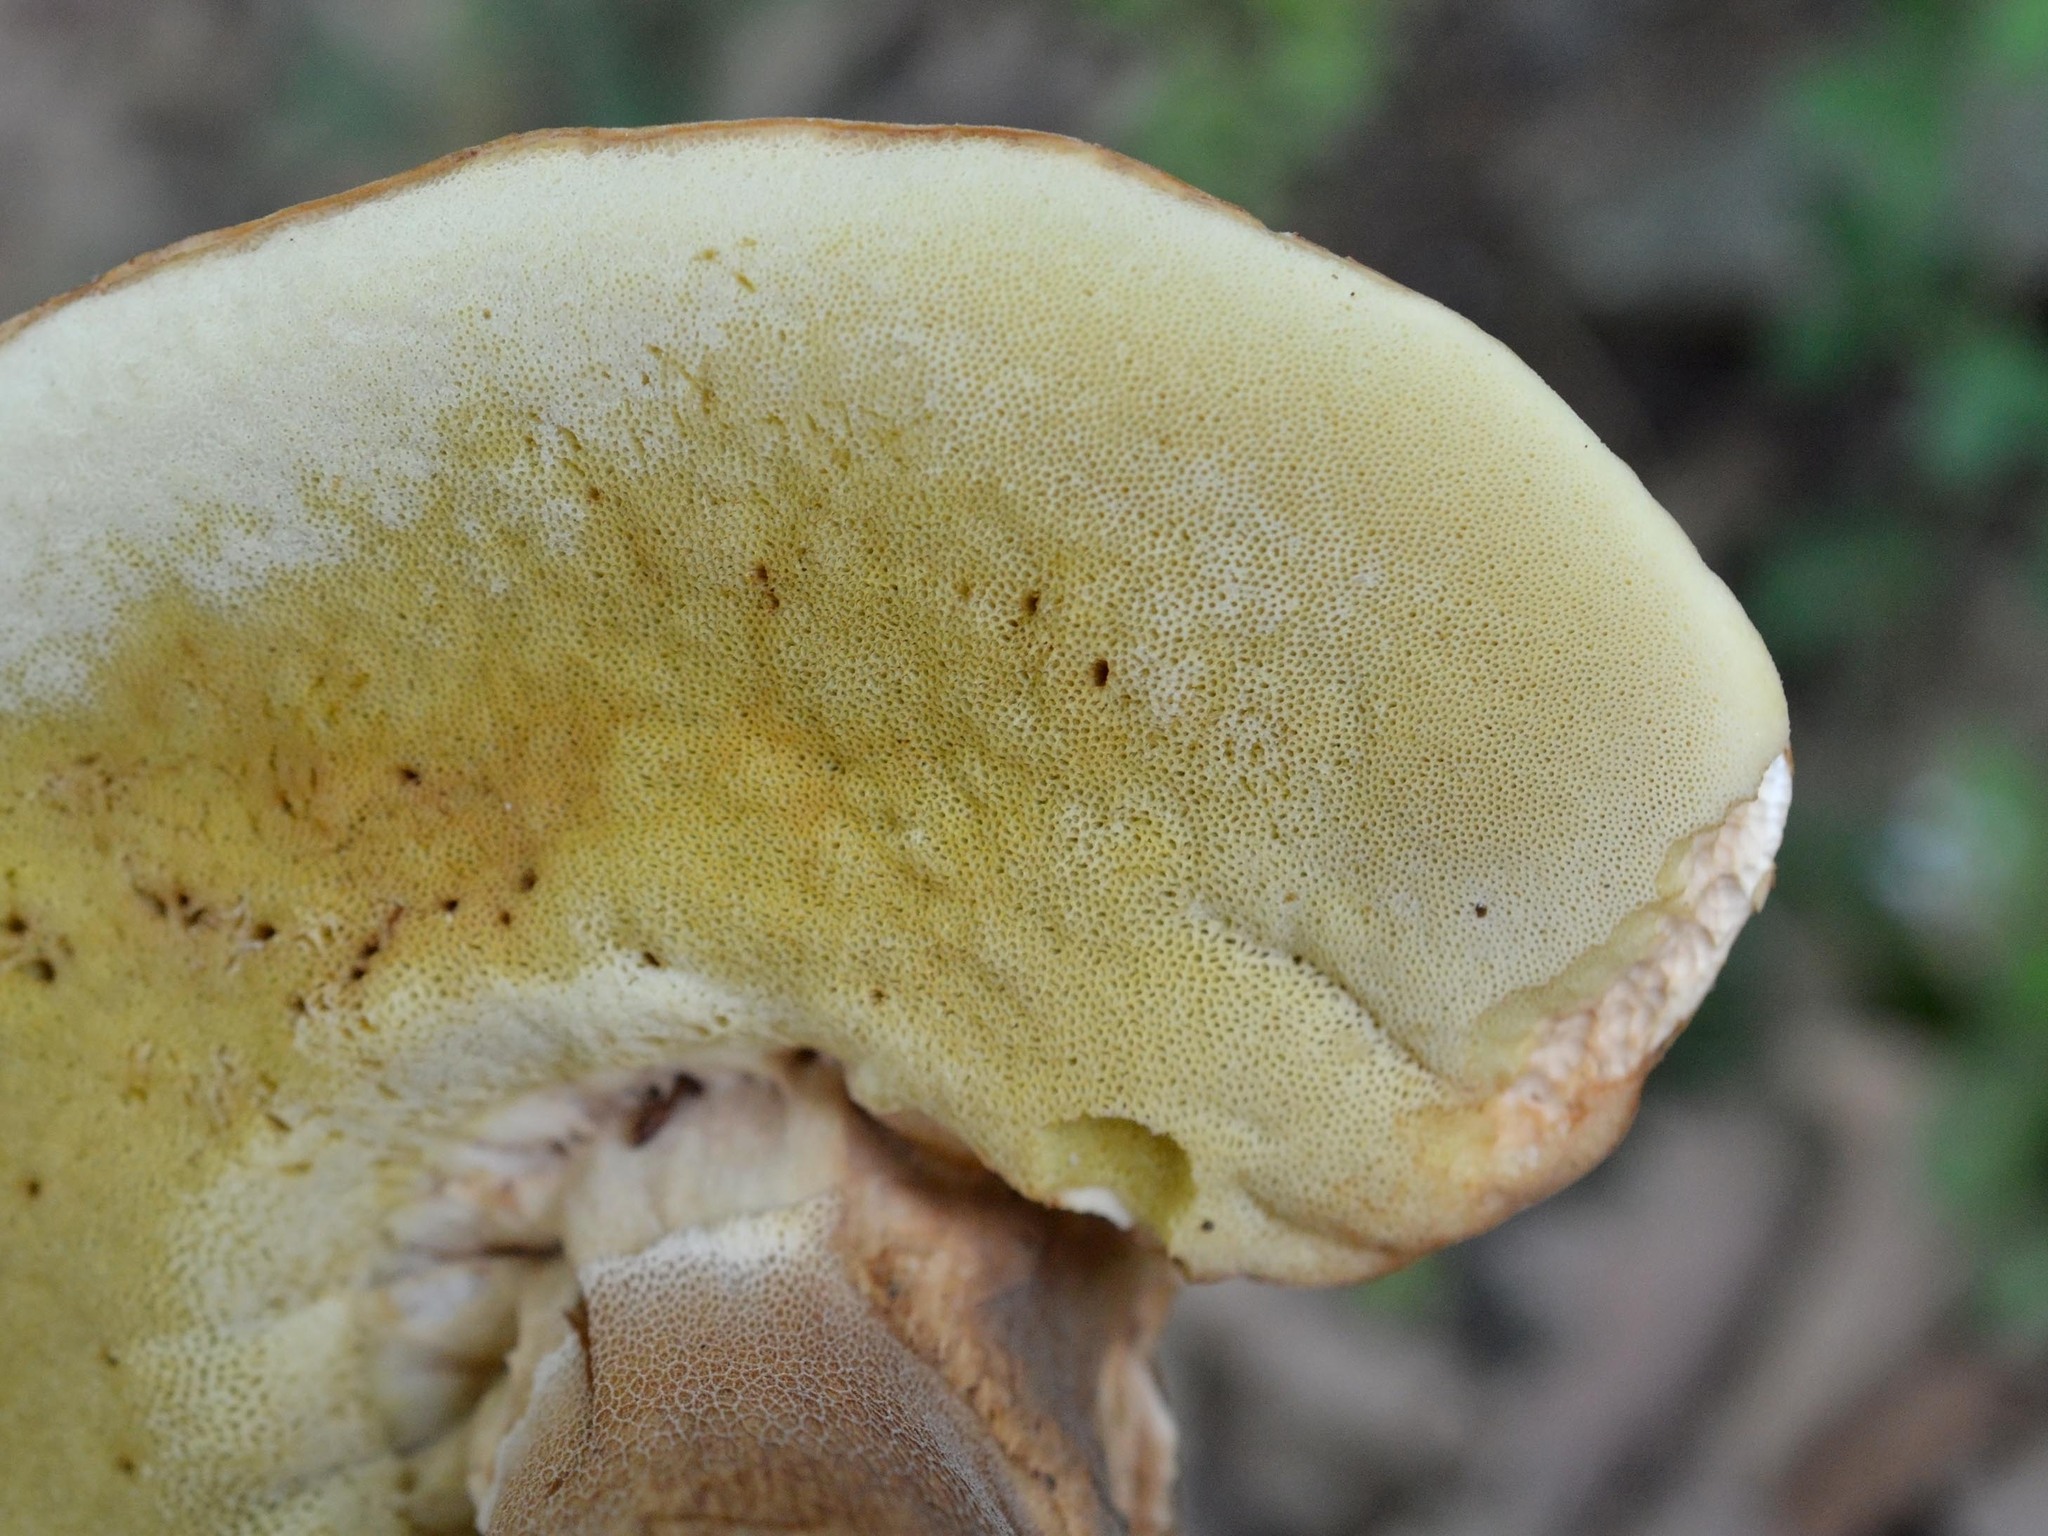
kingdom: Fungi
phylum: Basidiomycota
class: Agaricomycetes
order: Boletales
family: Boletaceae
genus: Boletus
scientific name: Boletus aereus
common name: Bronze bolete
